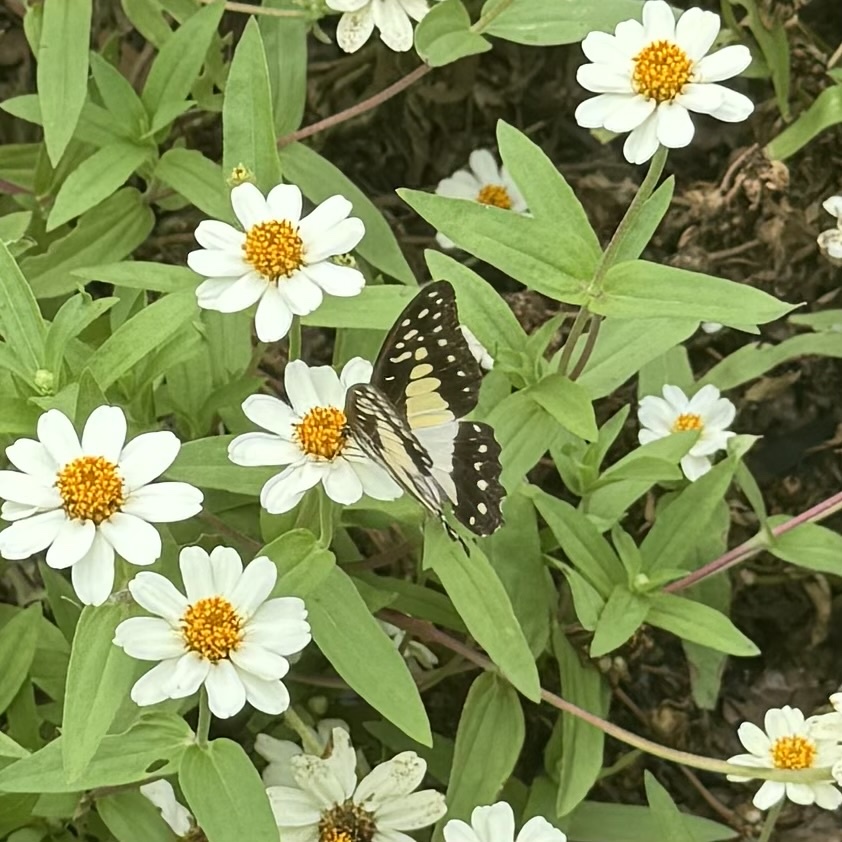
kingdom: Animalia
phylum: Arthropoda
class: Insecta
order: Lepidoptera
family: Papilionidae
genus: Graphium
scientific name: Graphium eurypylus
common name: Great jay
